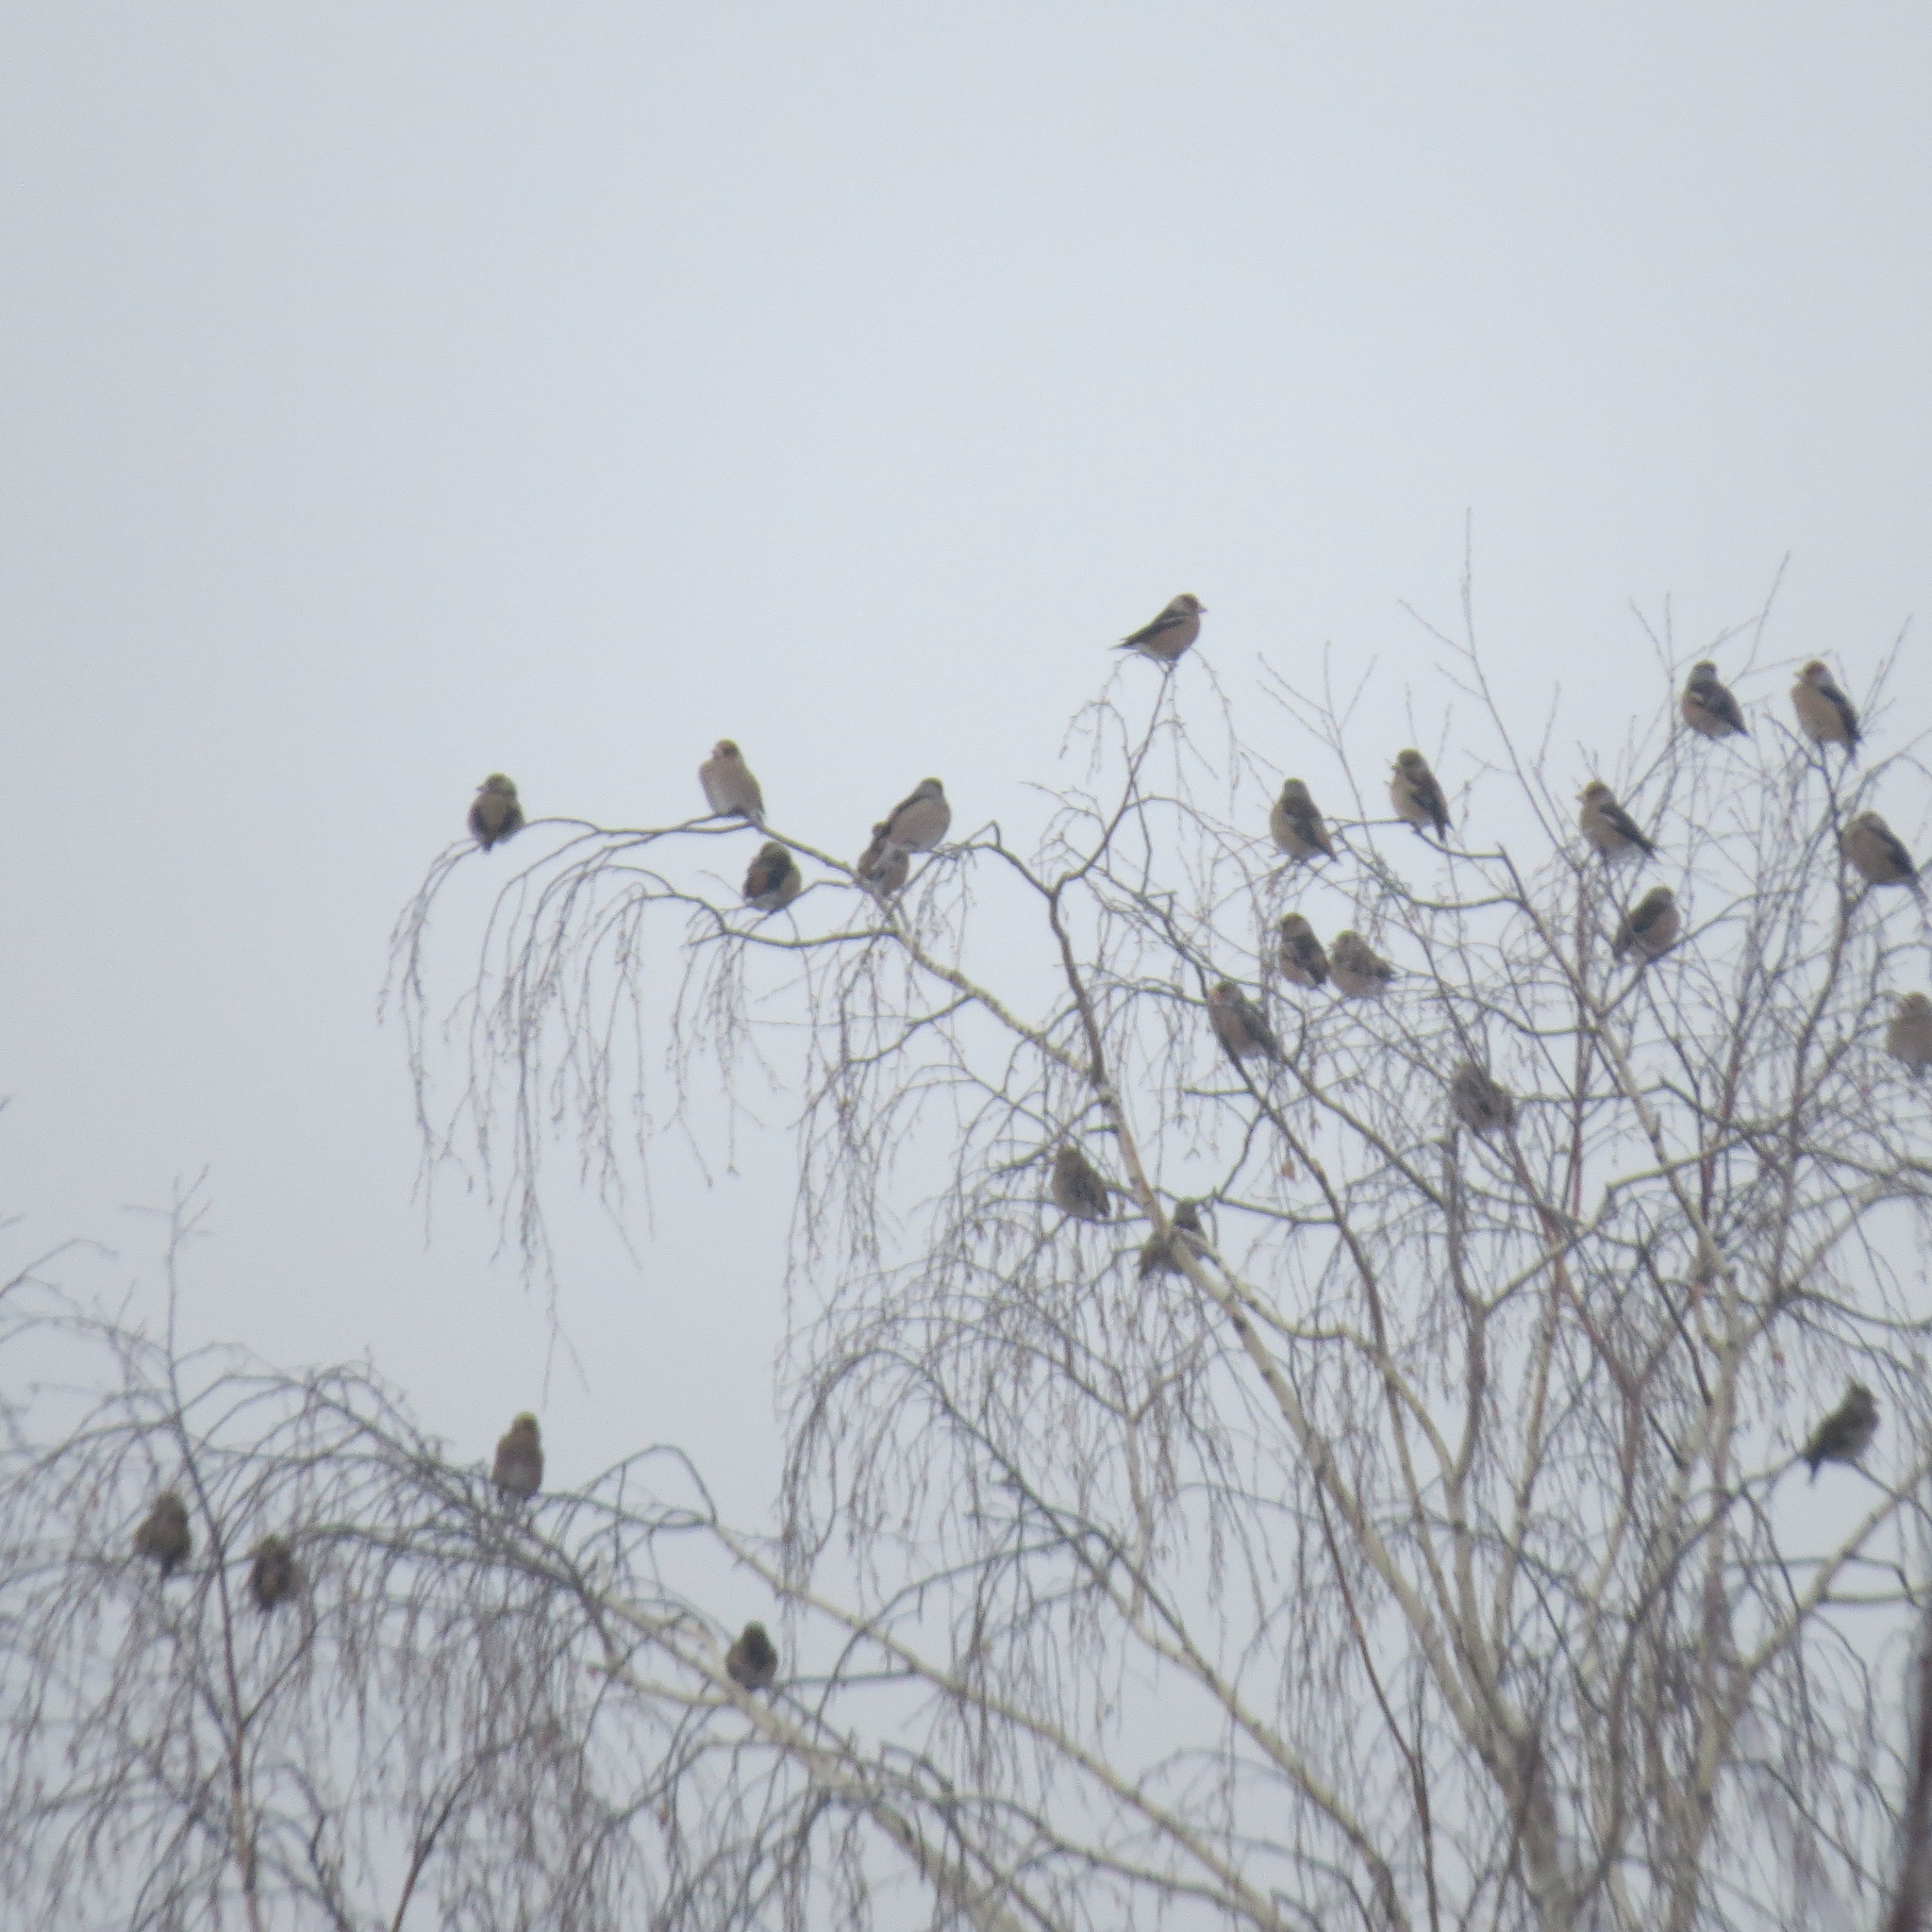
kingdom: Animalia
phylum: Chordata
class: Aves
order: Passeriformes
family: Fringillidae
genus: Coccothraustes
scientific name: Coccothraustes coccothraustes
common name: Hawfinch
